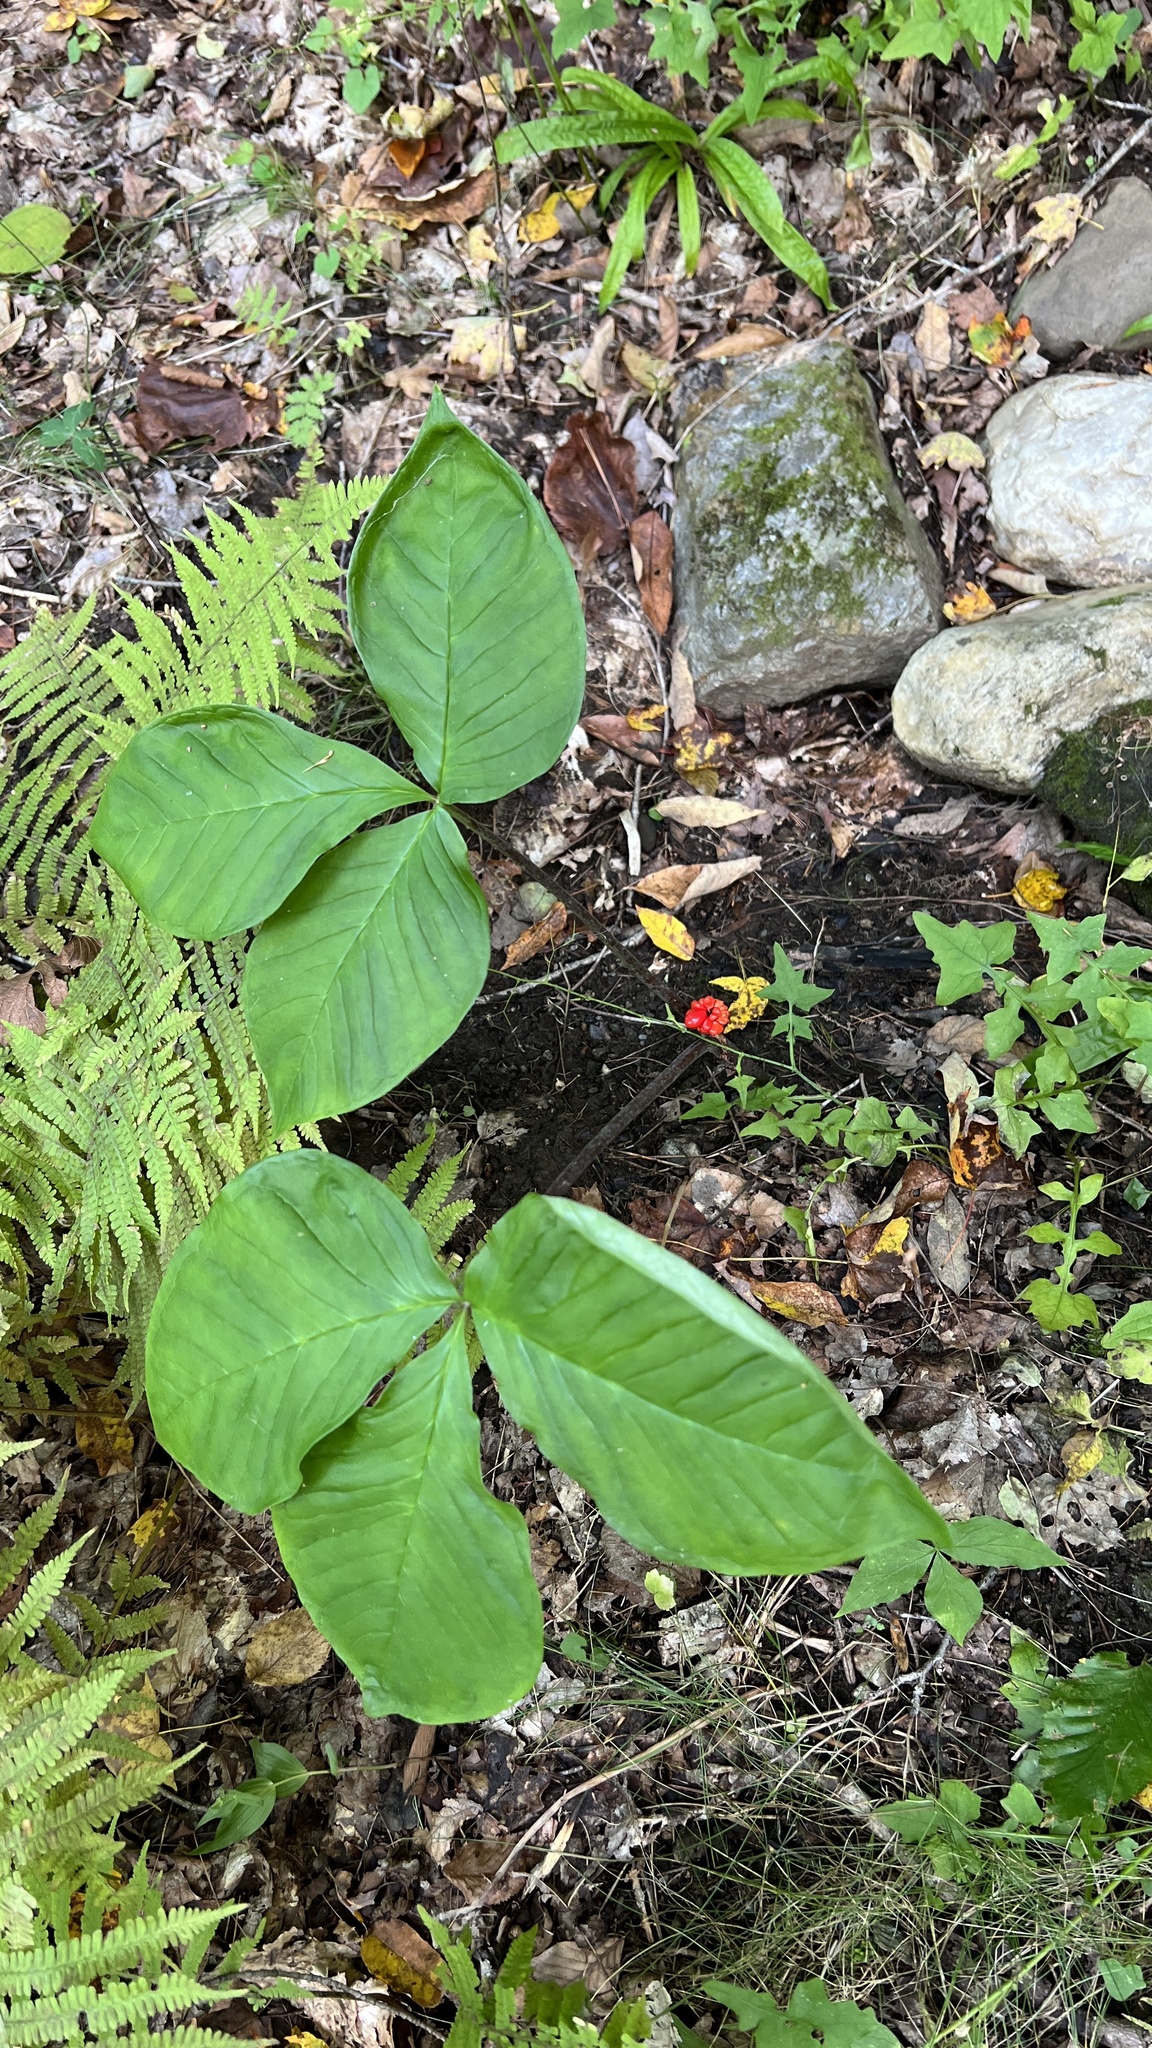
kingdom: Plantae
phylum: Tracheophyta
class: Liliopsida
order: Alismatales
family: Araceae
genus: Arisaema
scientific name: Arisaema triphyllum
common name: Jack-in-the-pulpit
